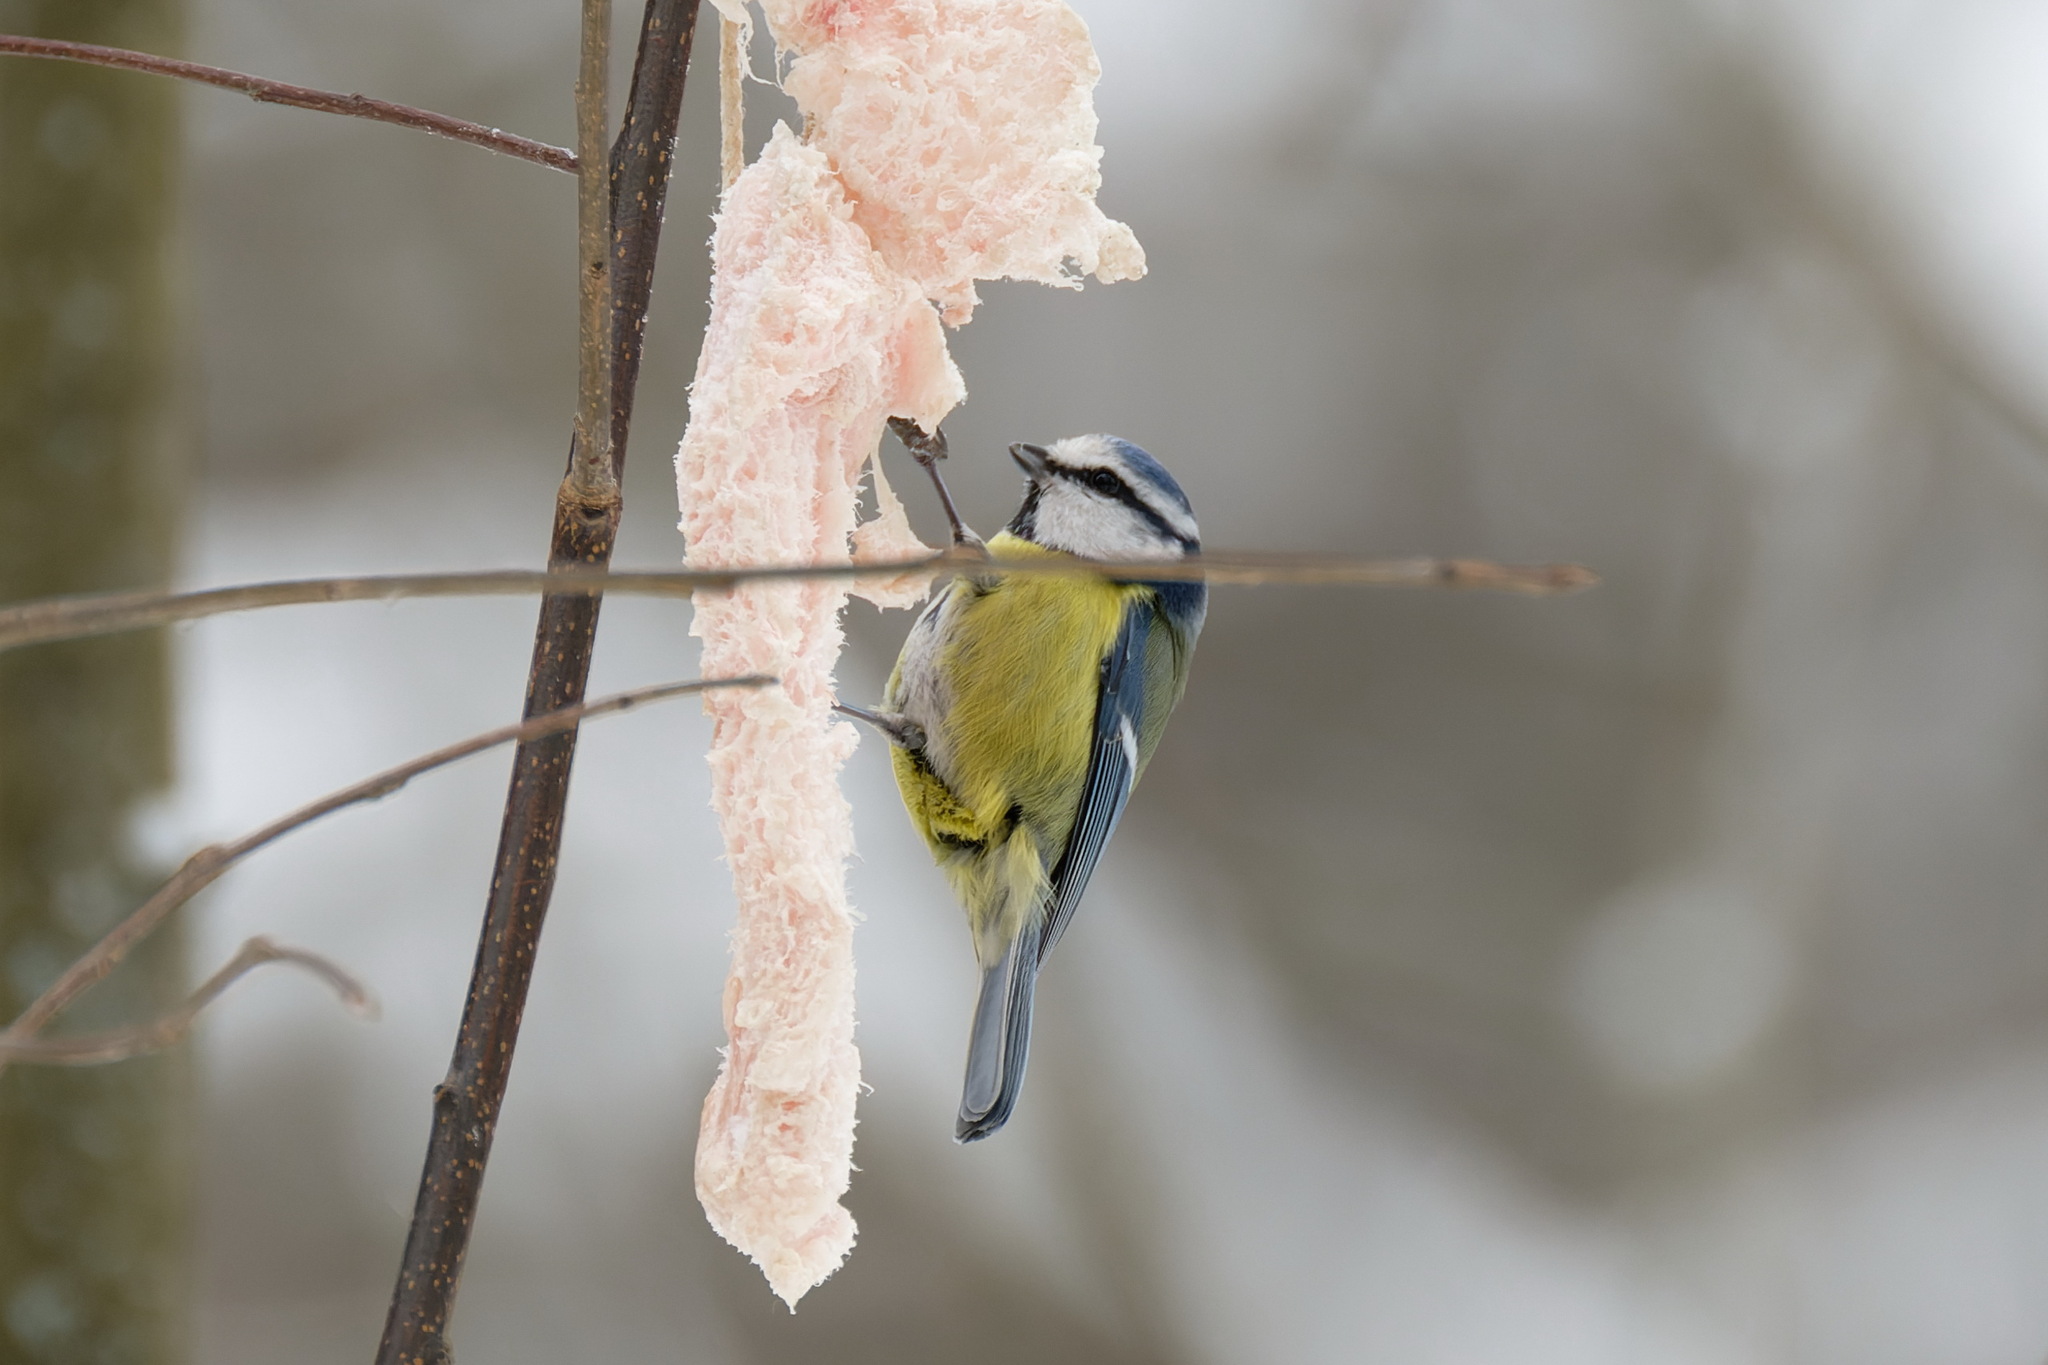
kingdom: Animalia
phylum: Chordata
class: Aves
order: Passeriformes
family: Paridae
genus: Cyanistes
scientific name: Cyanistes caeruleus
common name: Eurasian blue tit
